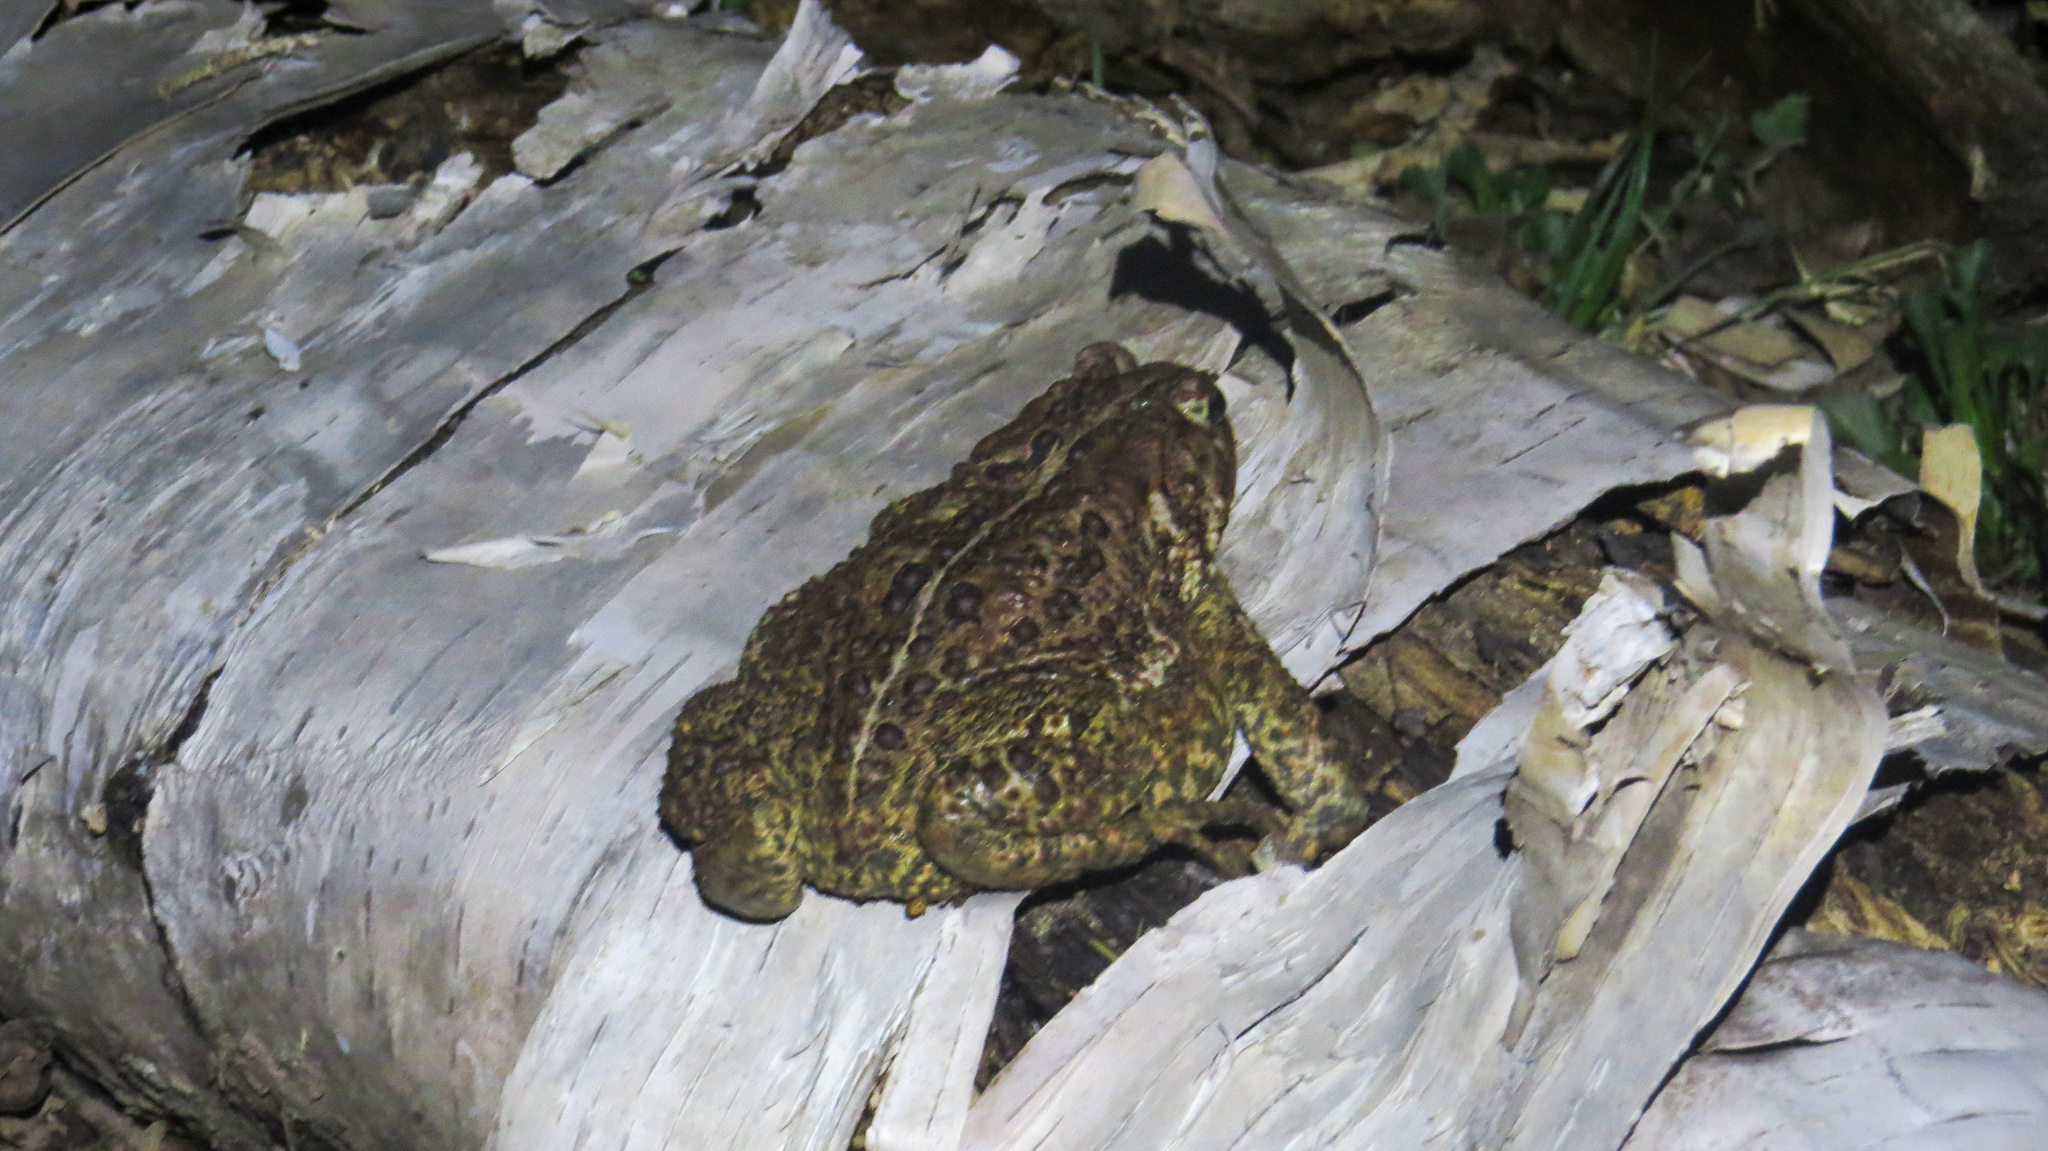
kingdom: Animalia
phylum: Chordata
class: Amphibia
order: Anura
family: Bufonidae
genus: Anaxyrus
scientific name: Anaxyrus americanus
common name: American toad
